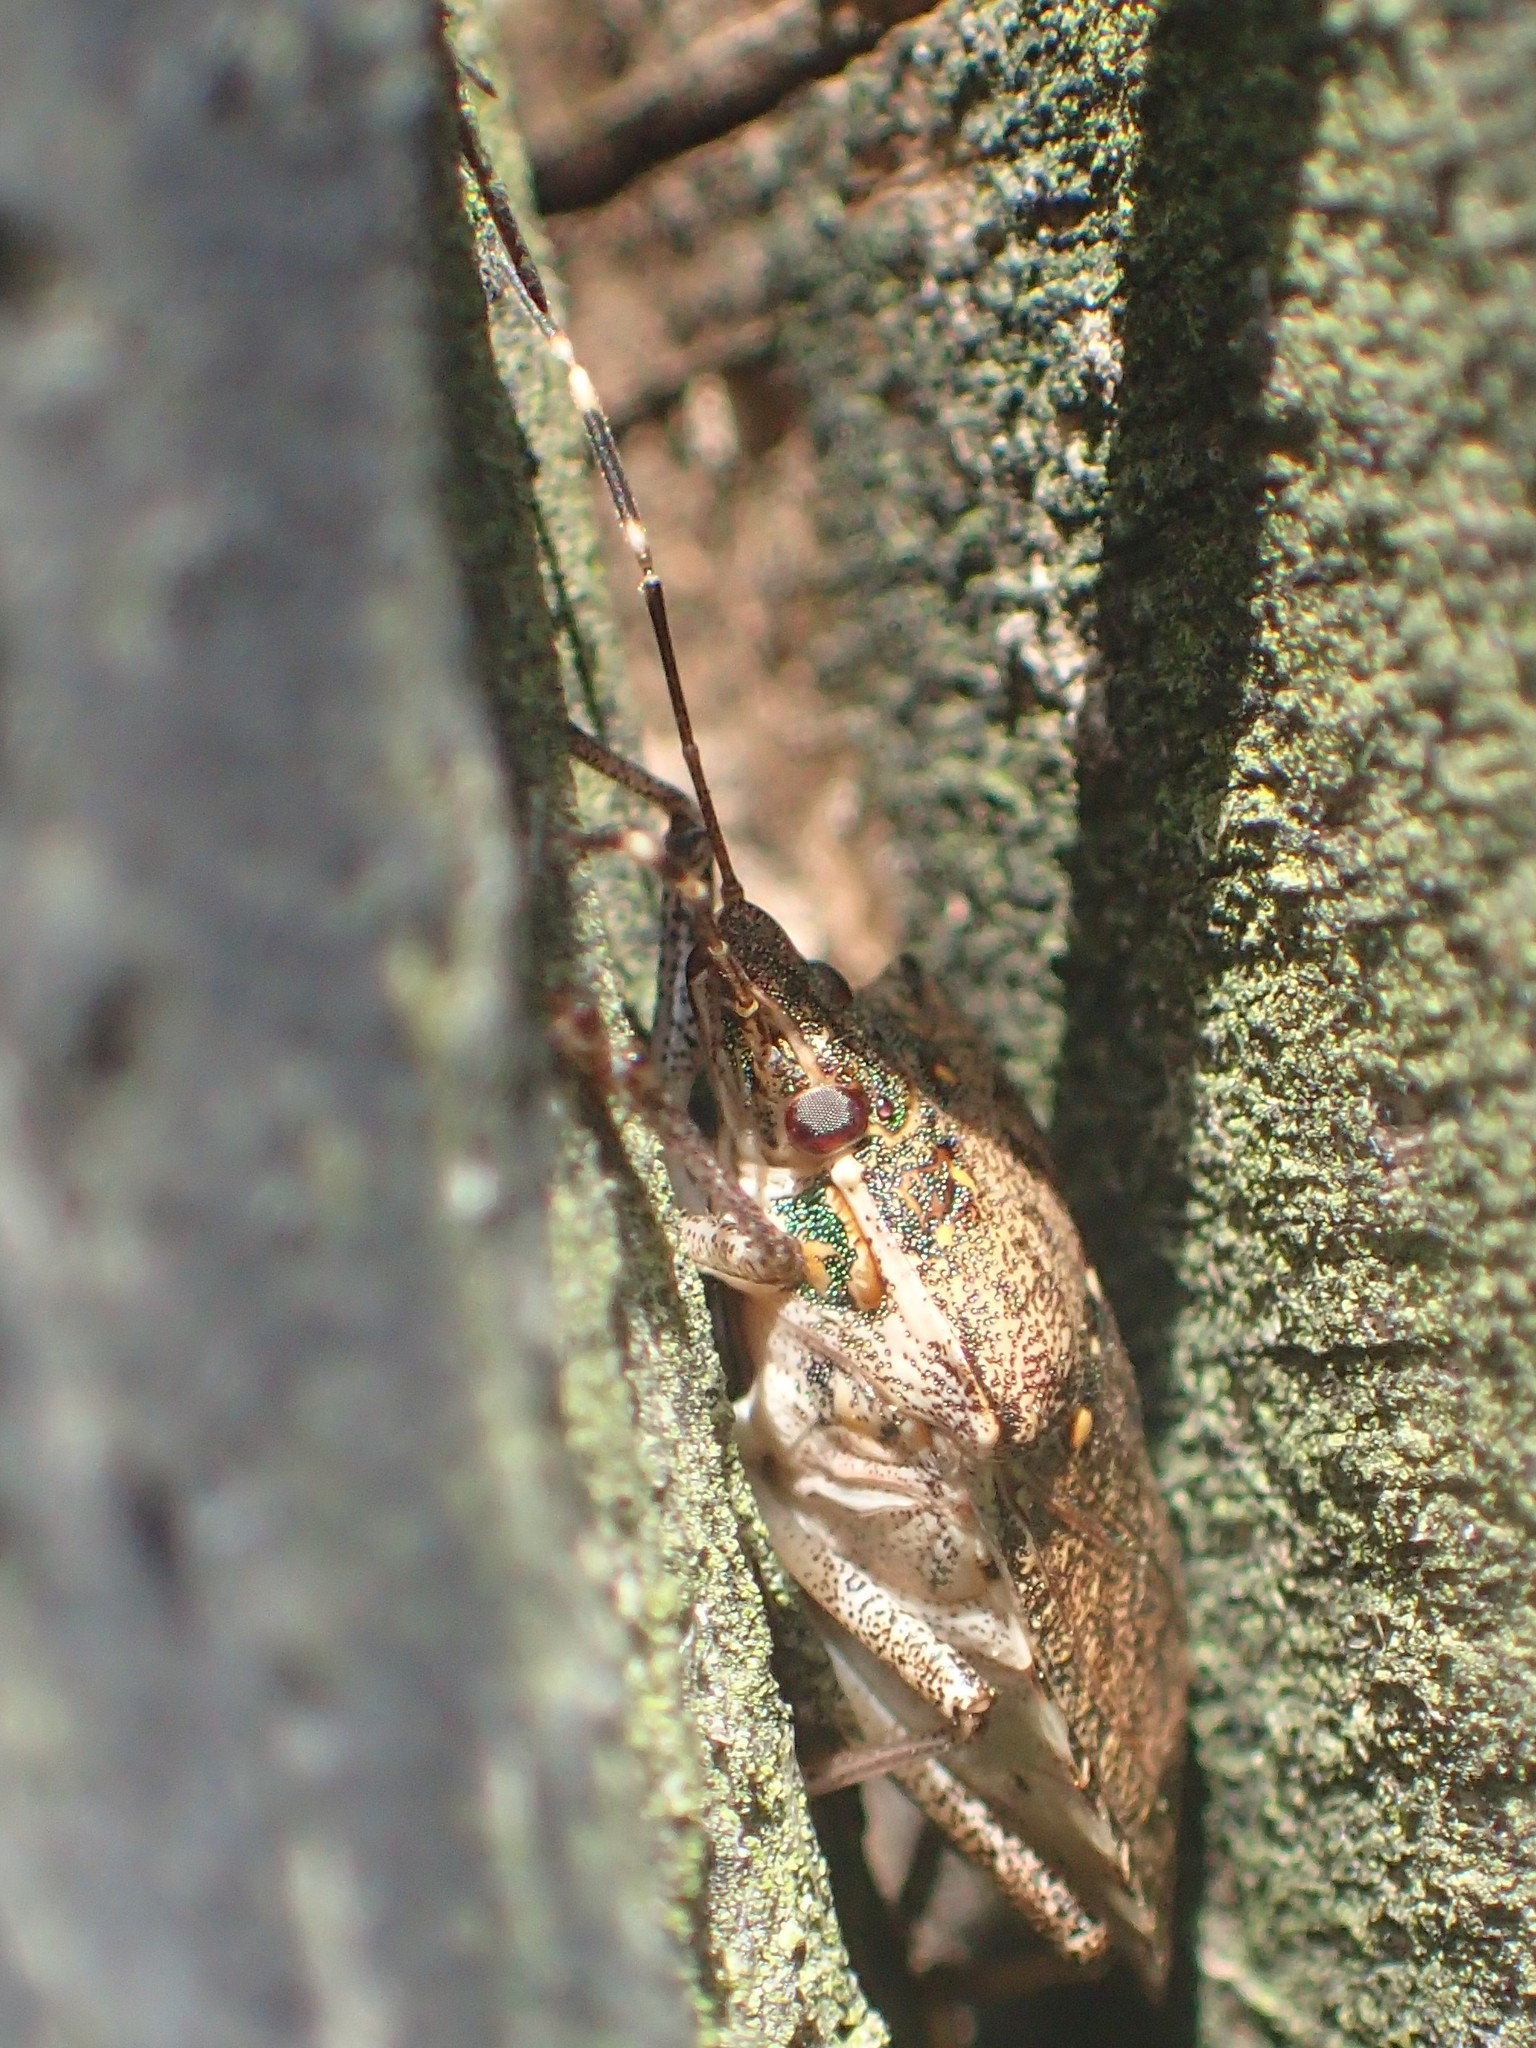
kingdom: Animalia
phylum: Arthropoda
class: Insecta
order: Hemiptera
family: Pentatomidae
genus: Halyomorpha
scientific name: Halyomorpha halys
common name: Brown marmorated stink bug
